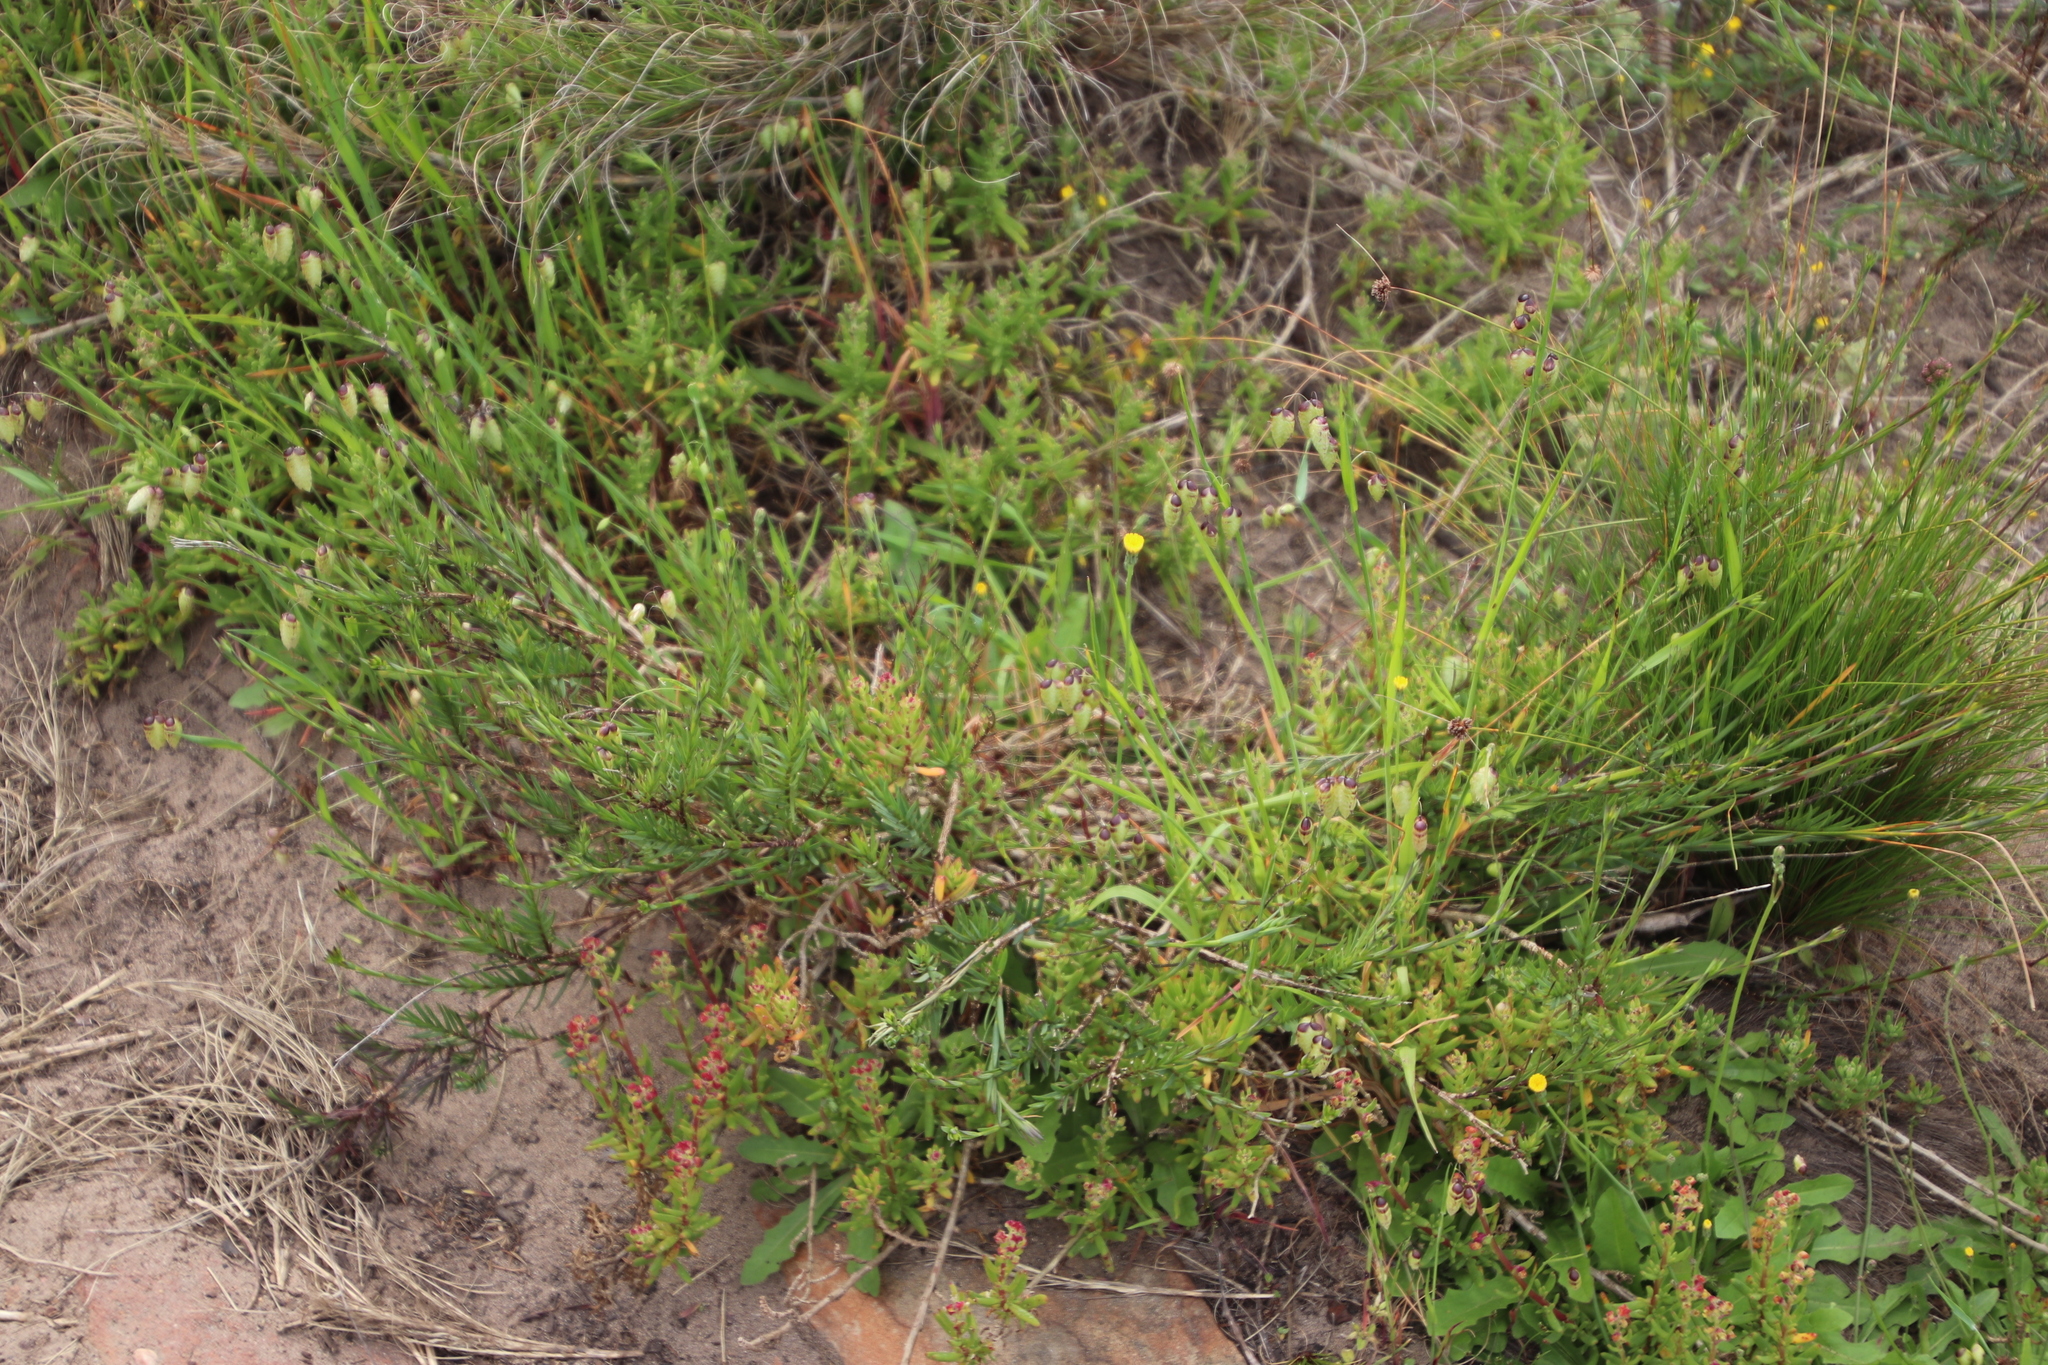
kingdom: Plantae
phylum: Tracheophyta
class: Magnoliopsida
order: Caryophyllales
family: Aizoaceae
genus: Tetragonia
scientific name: Tetragonia fruticosa
